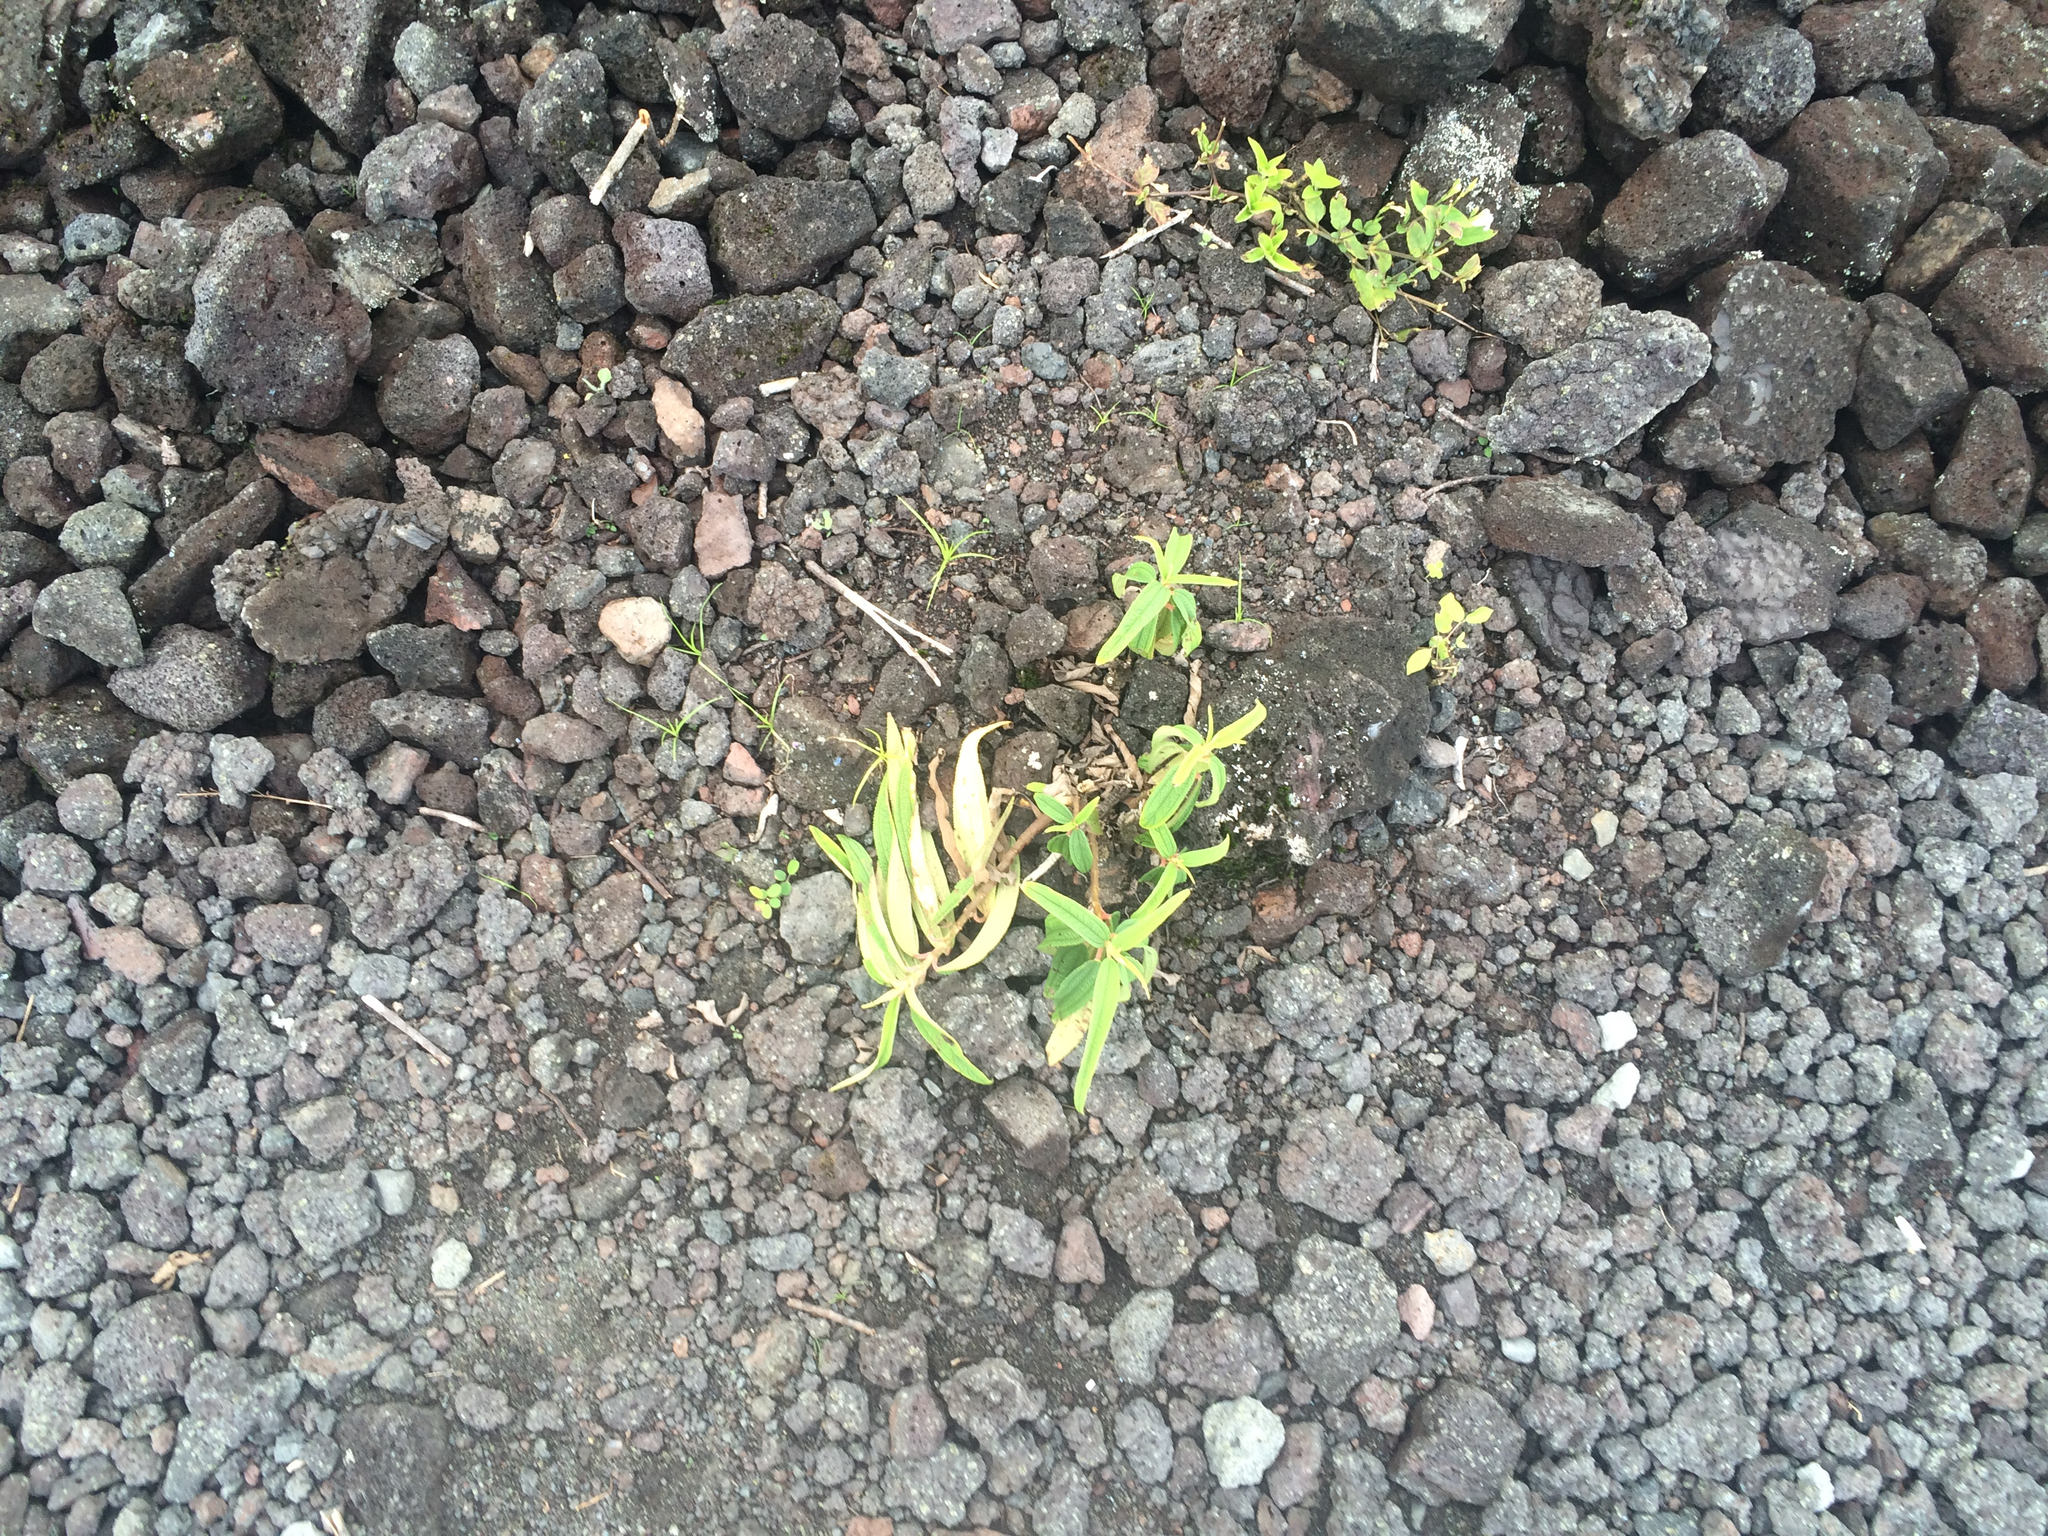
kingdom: Plantae
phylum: Tracheophyta
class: Magnoliopsida
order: Rosales
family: Urticaceae
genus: Boehmeria
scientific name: Boehmeria penduliflora
